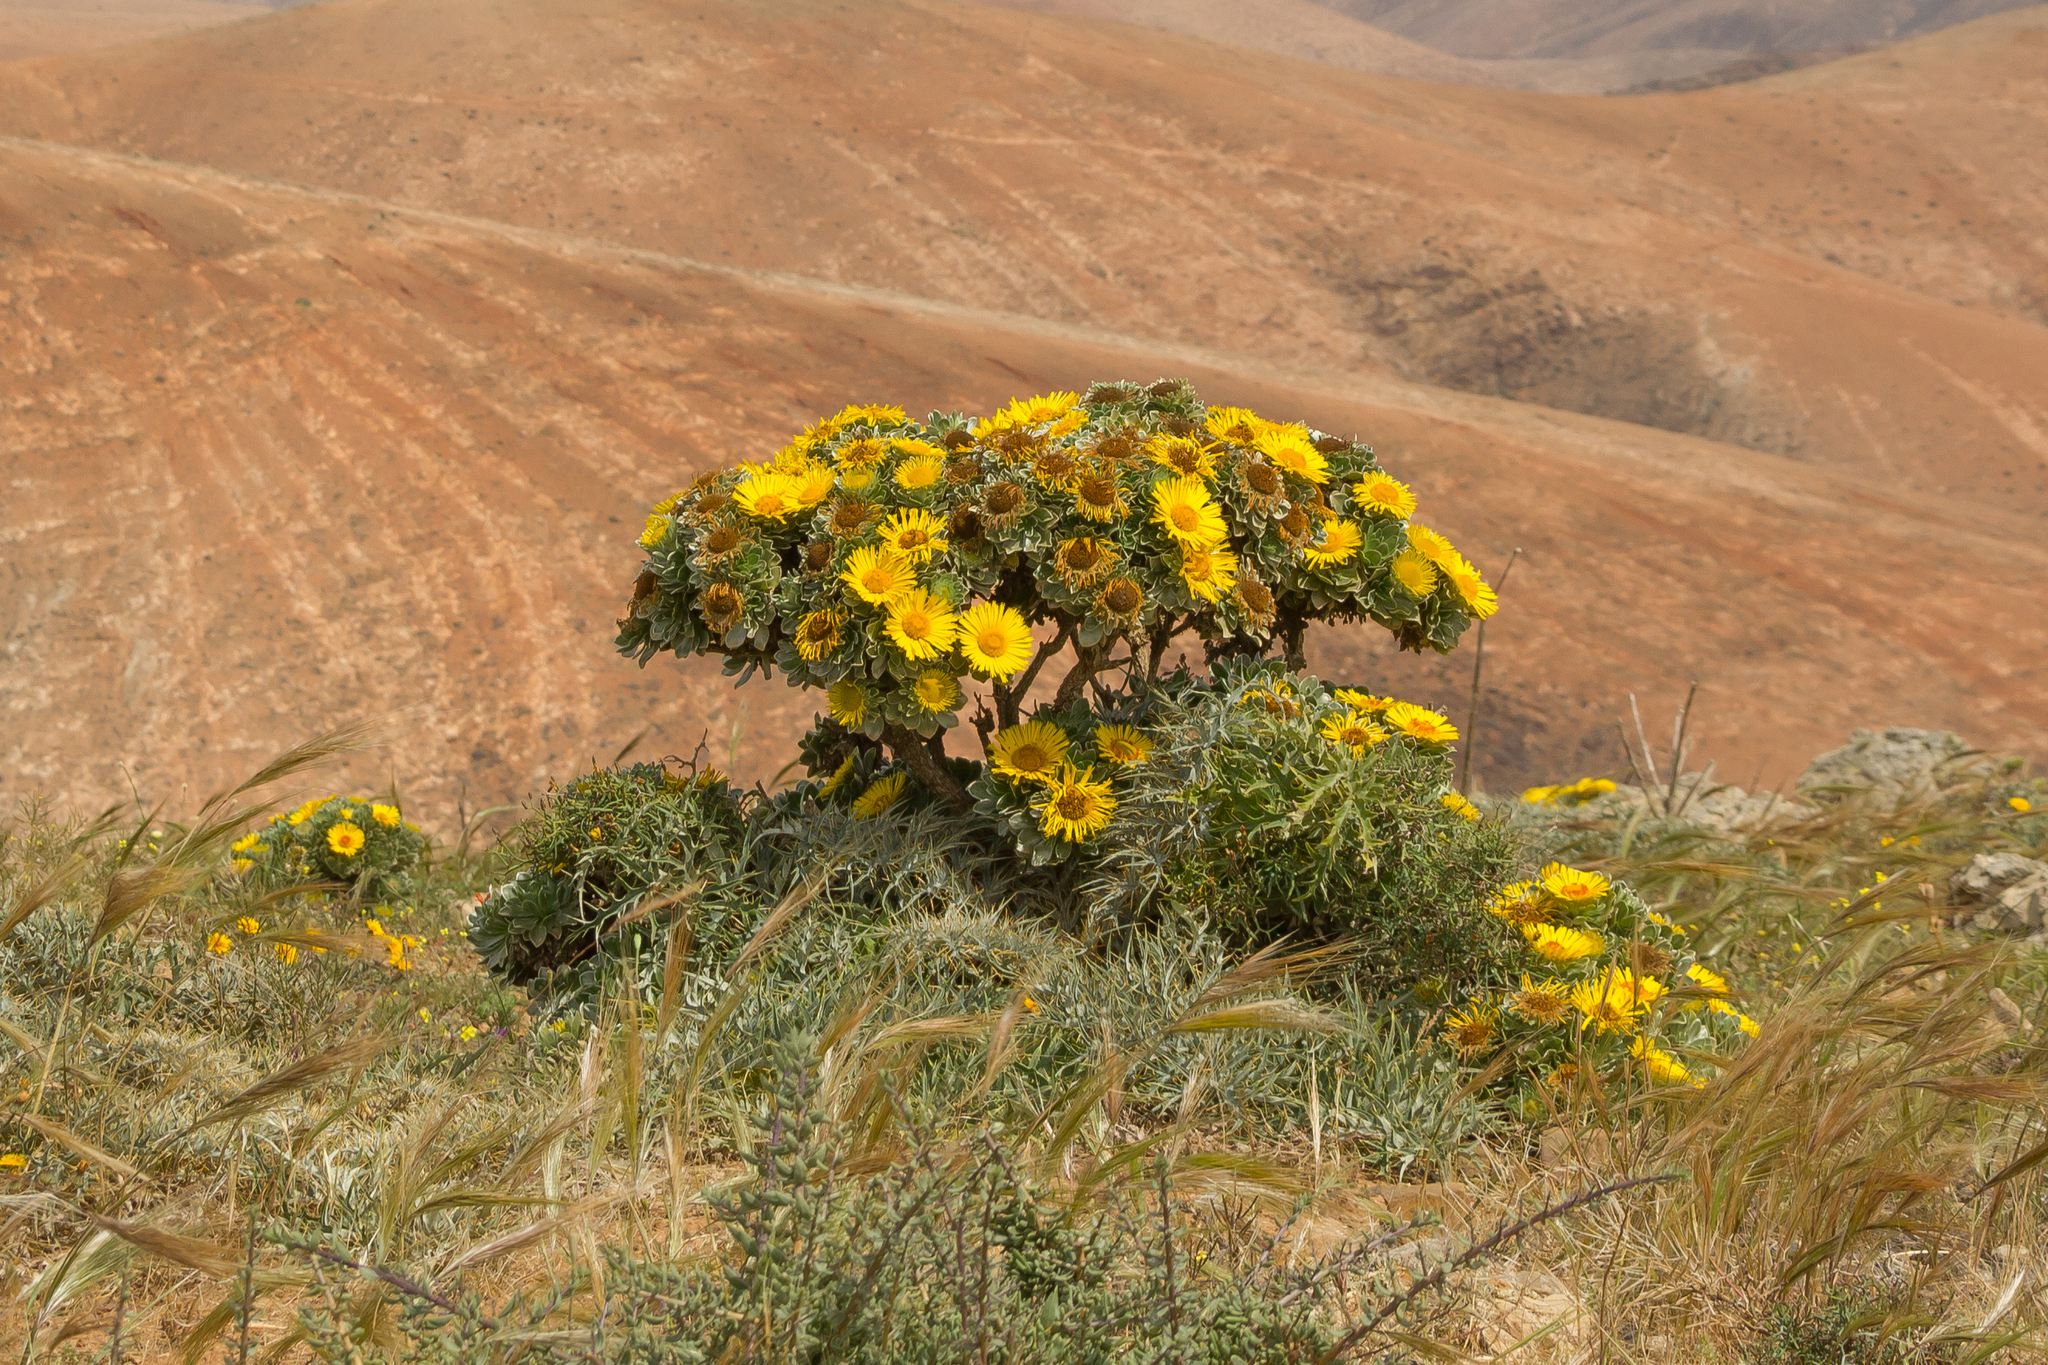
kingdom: Plantae
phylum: Tracheophyta
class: Magnoliopsida
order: Asterales
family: Asteraceae
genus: Asteriscus
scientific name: Asteriscus sericeus
